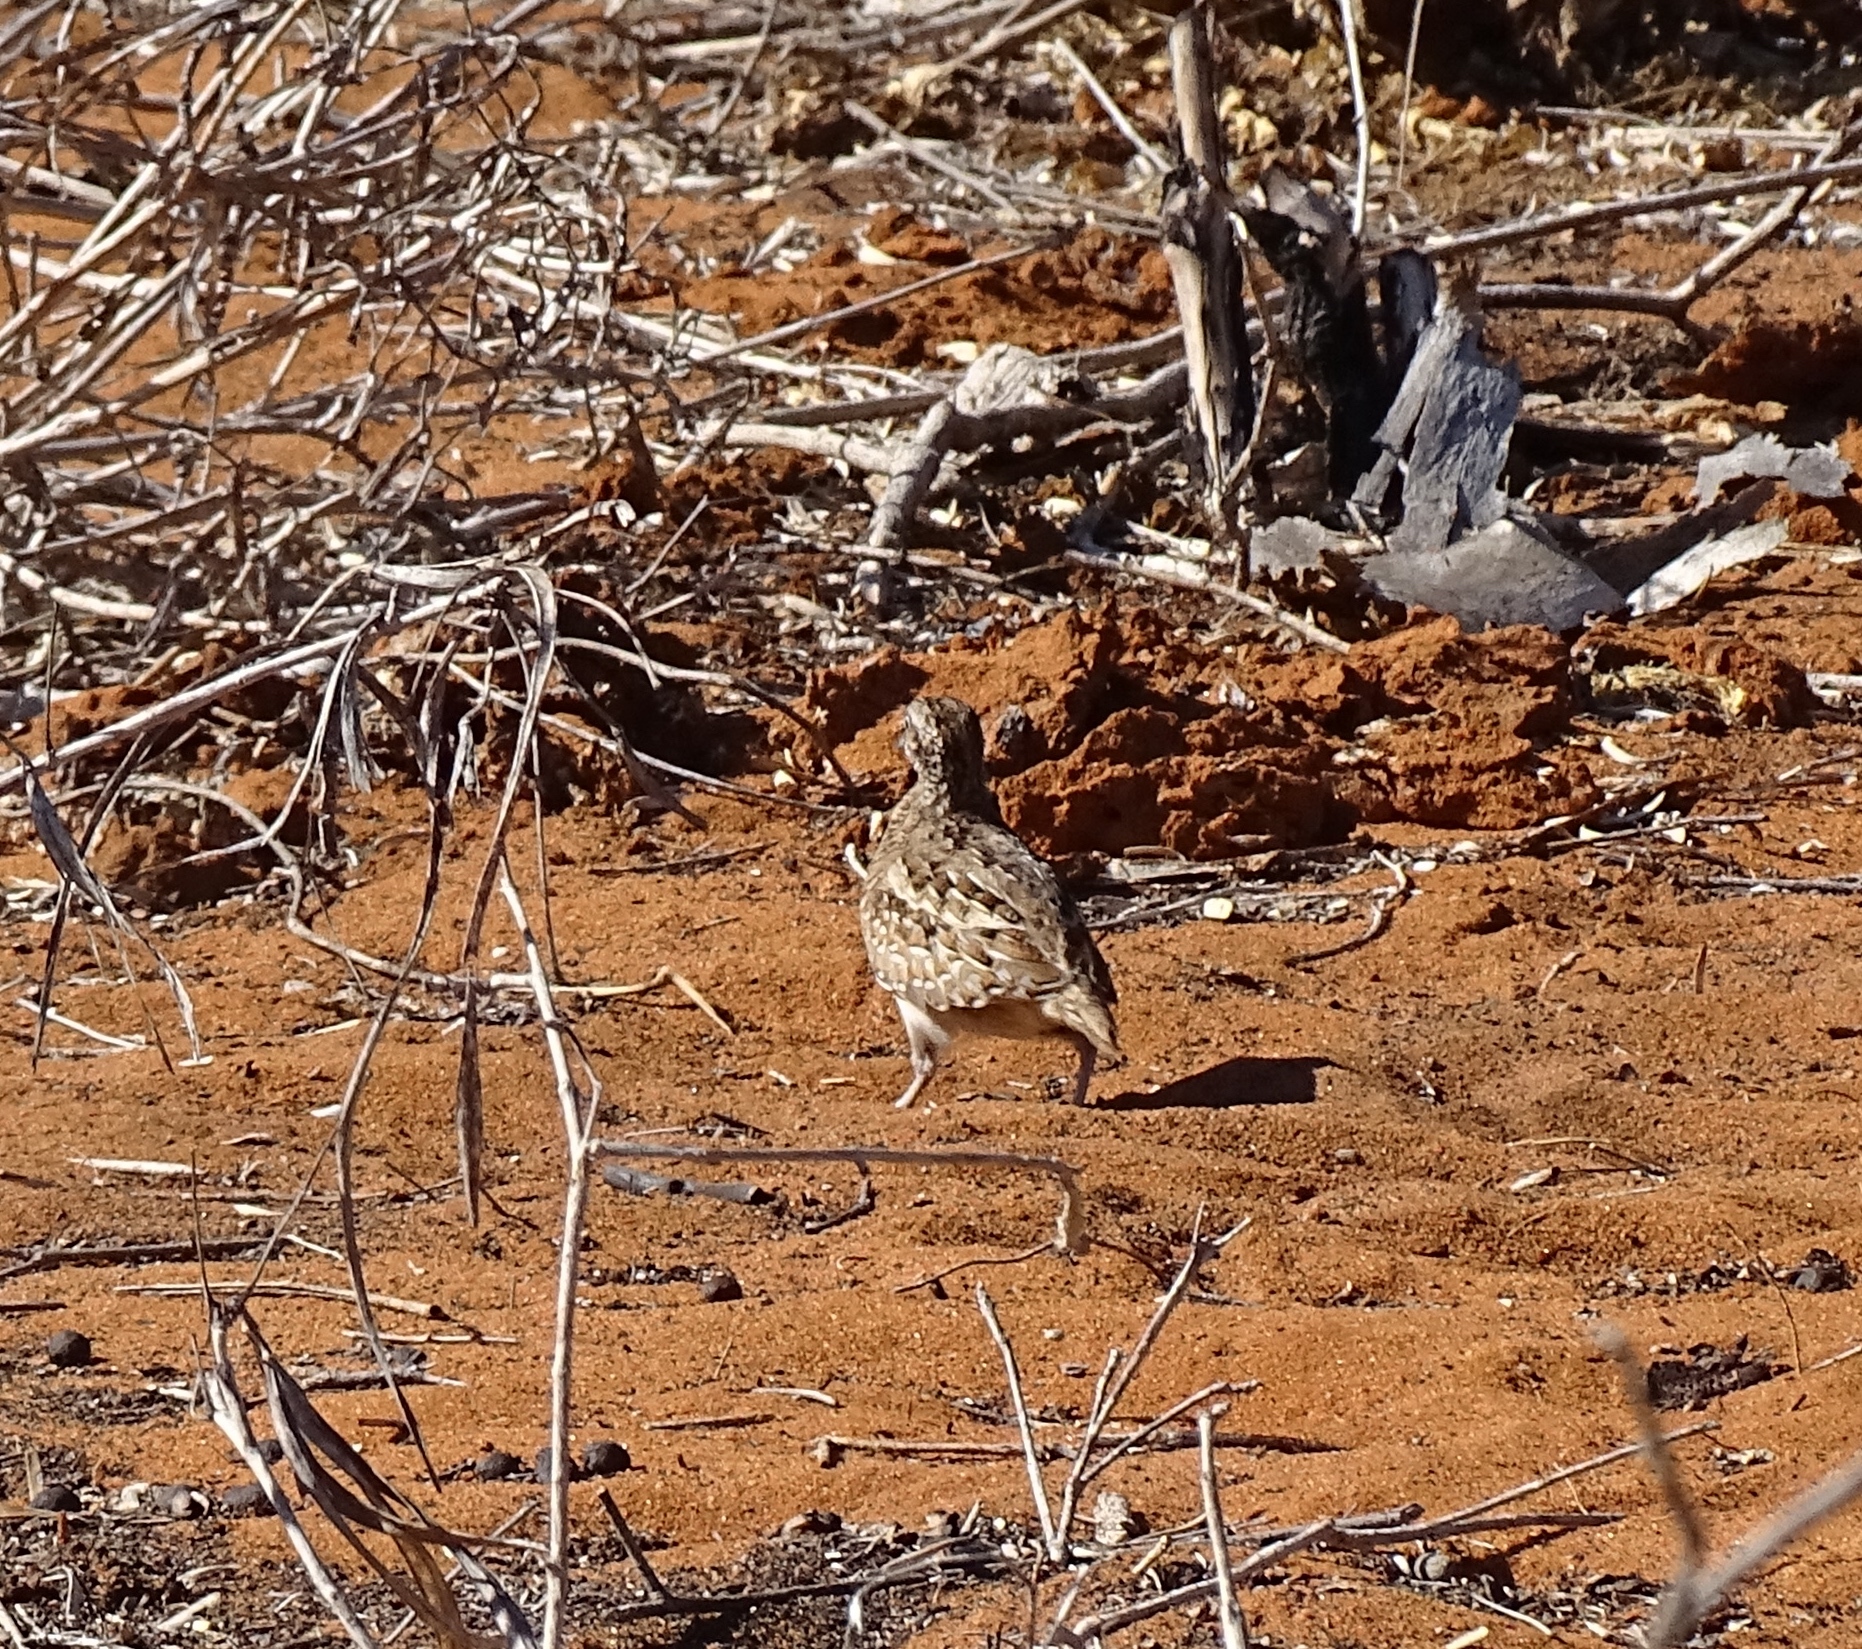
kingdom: Animalia
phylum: Chordata
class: Aves
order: Charadriiformes
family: Turnicidae
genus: Turnix
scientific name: Turnix nigricollis
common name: Madagascar buttonquail
